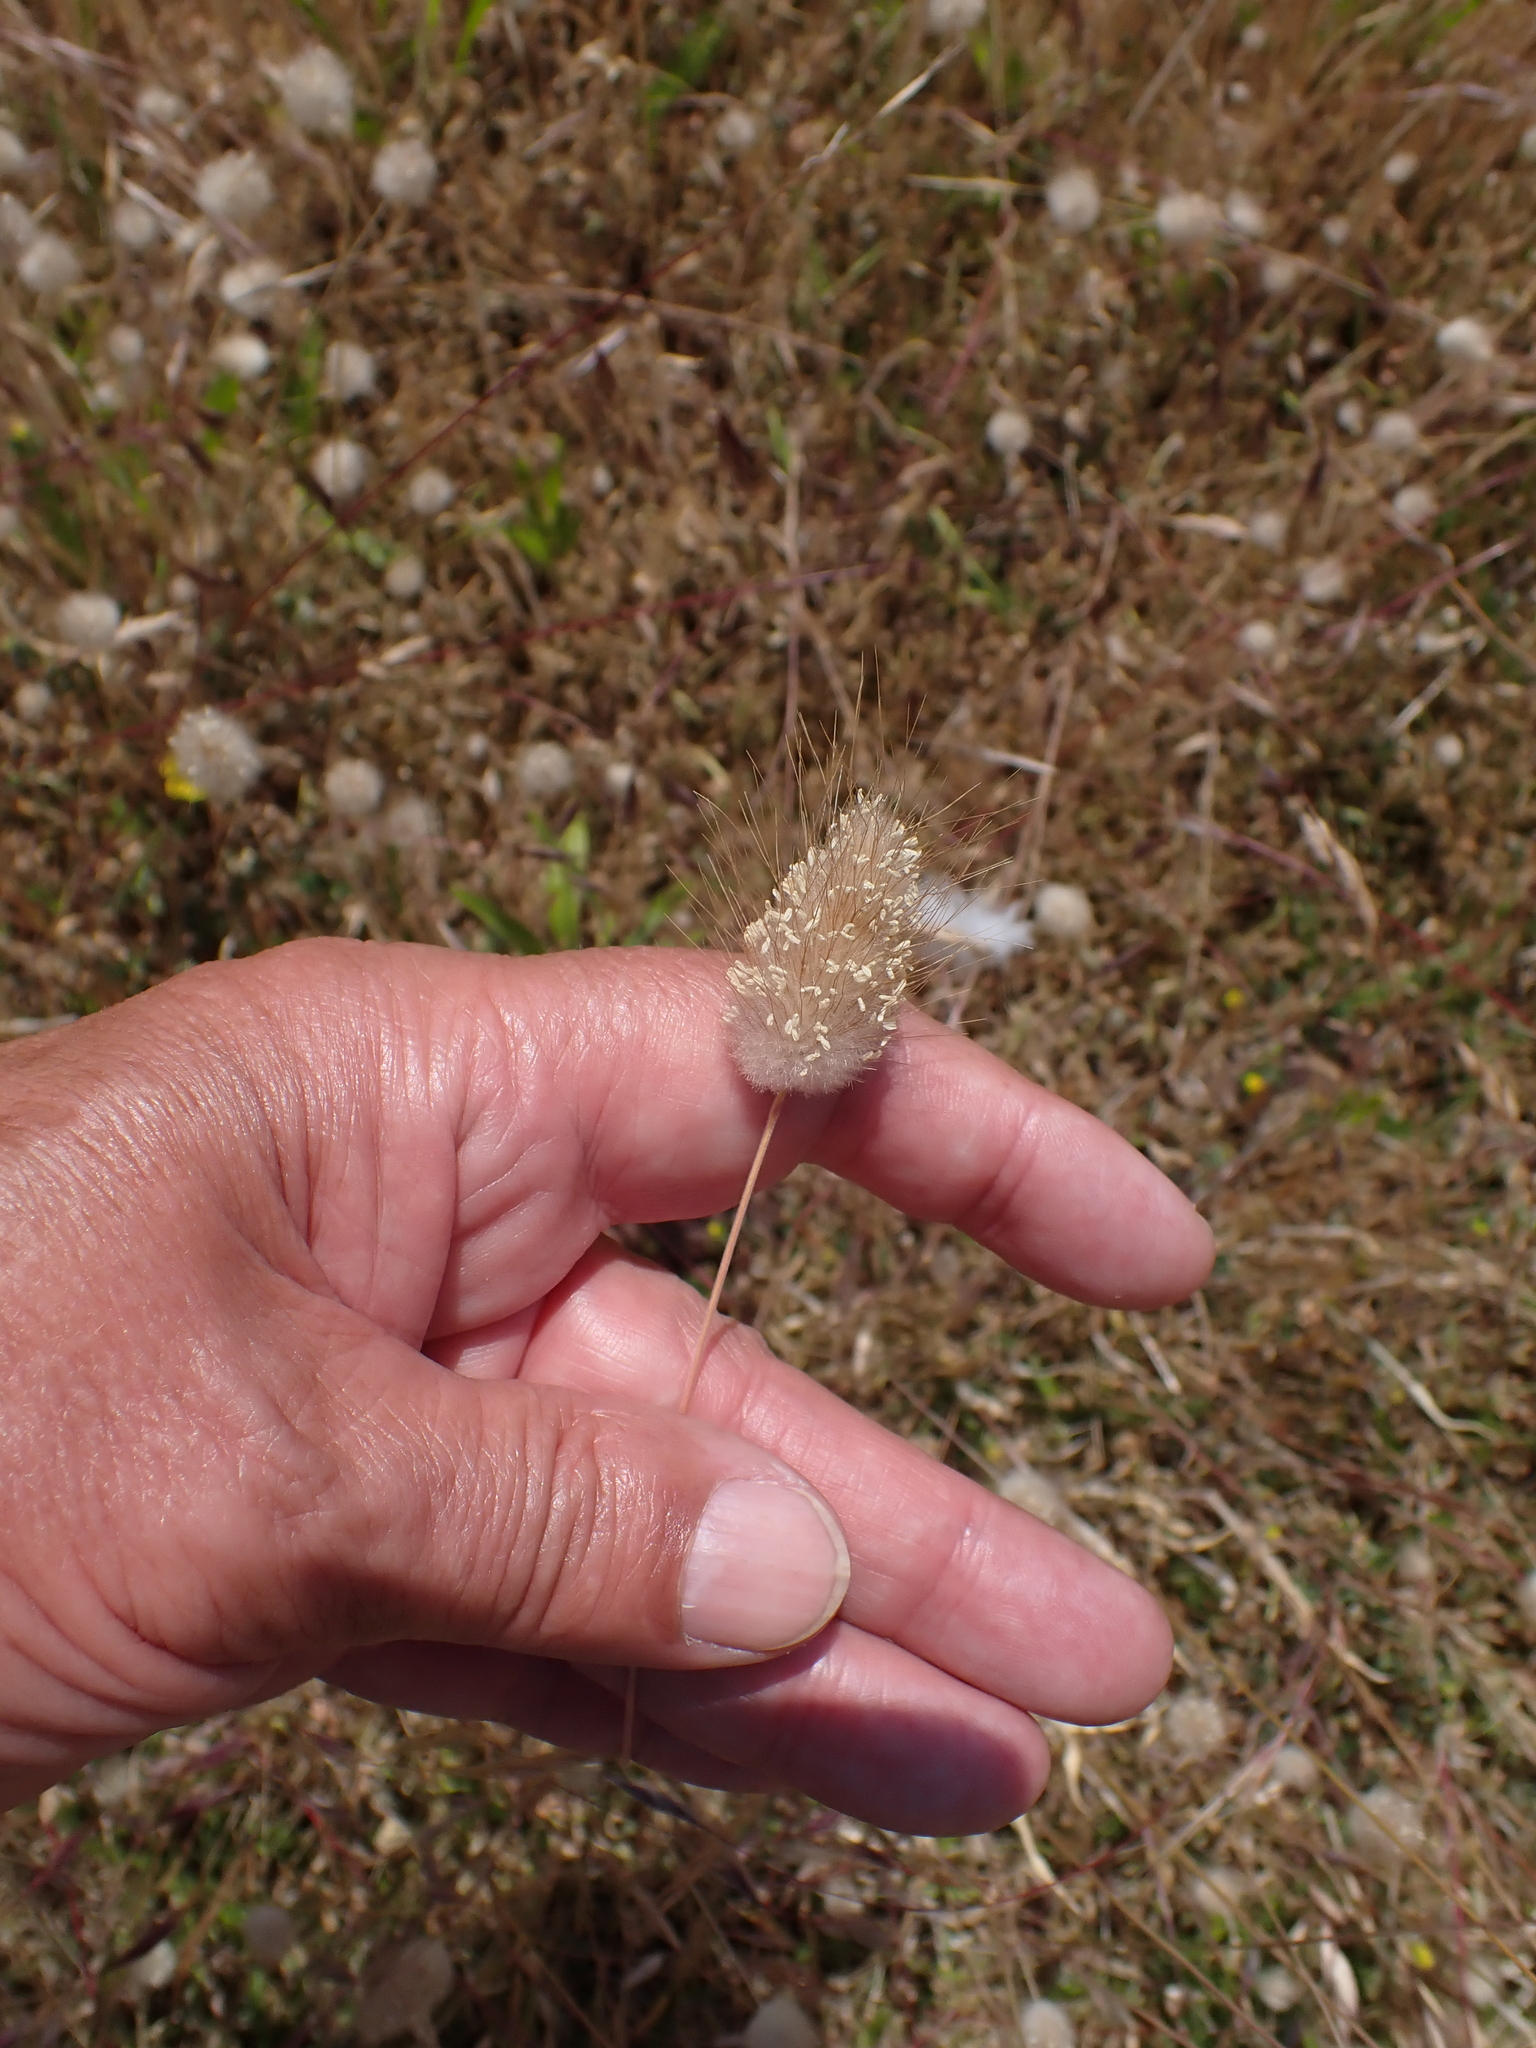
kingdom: Plantae
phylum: Tracheophyta
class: Liliopsida
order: Poales
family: Poaceae
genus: Lagurus
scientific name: Lagurus ovatus
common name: Hare's-tail
